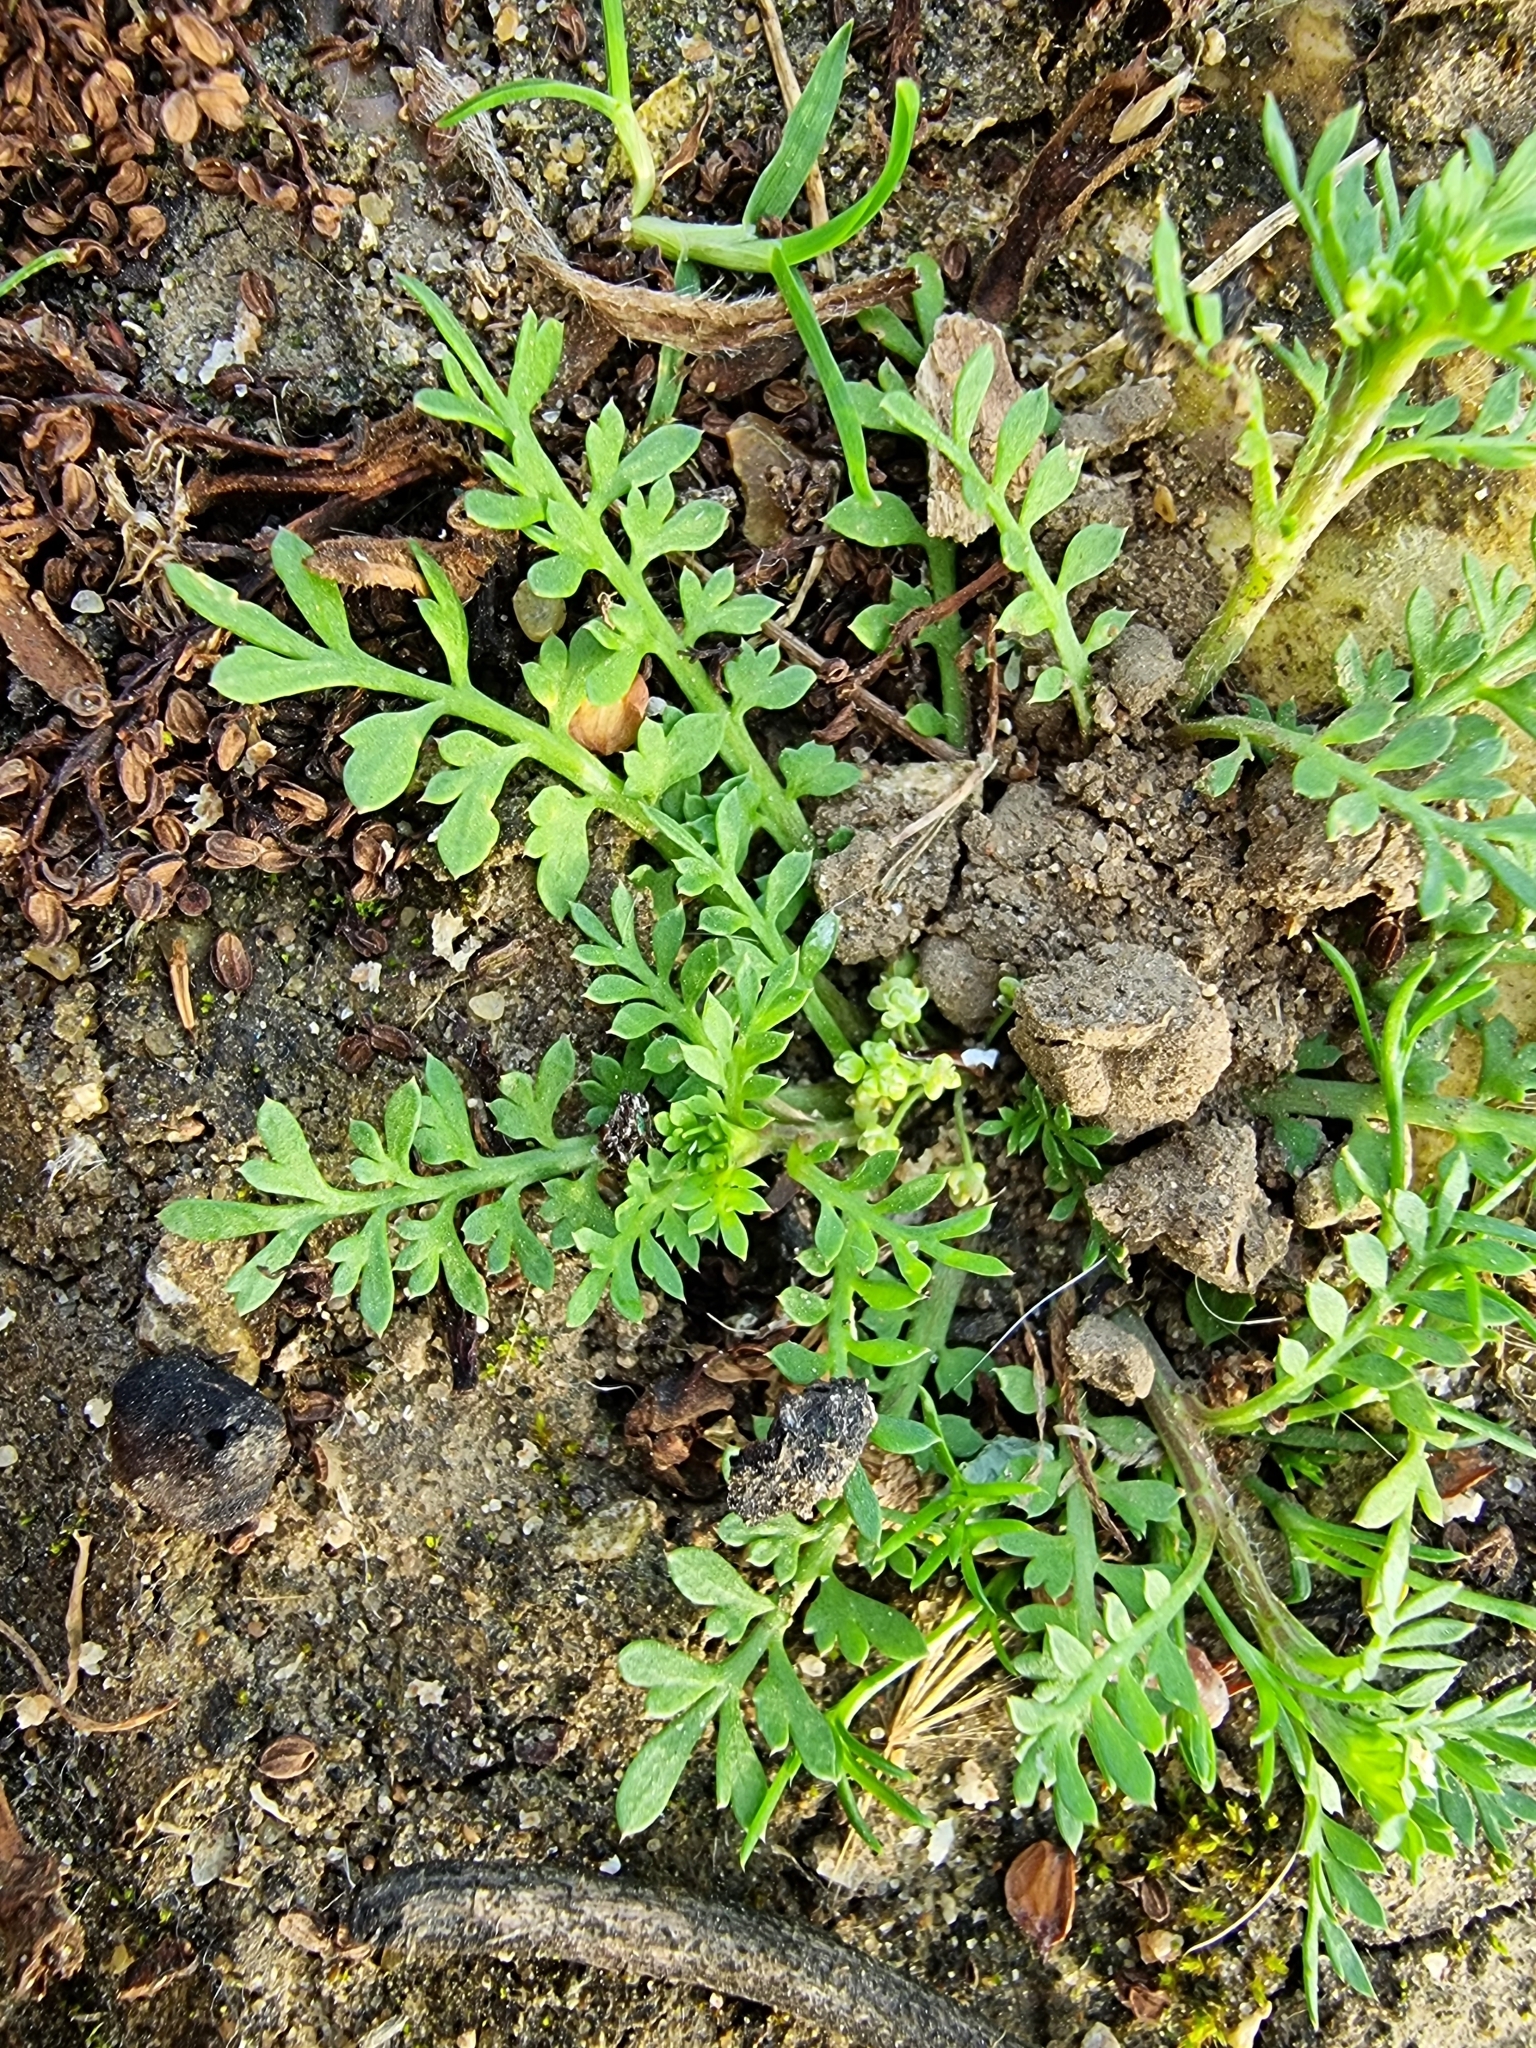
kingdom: Plantae
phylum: Tracheophyta
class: Magnoliopsida
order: Brassicales
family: Brassicaceae
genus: Lepidium
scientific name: Lepidium didymum
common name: Lesser swinecress
